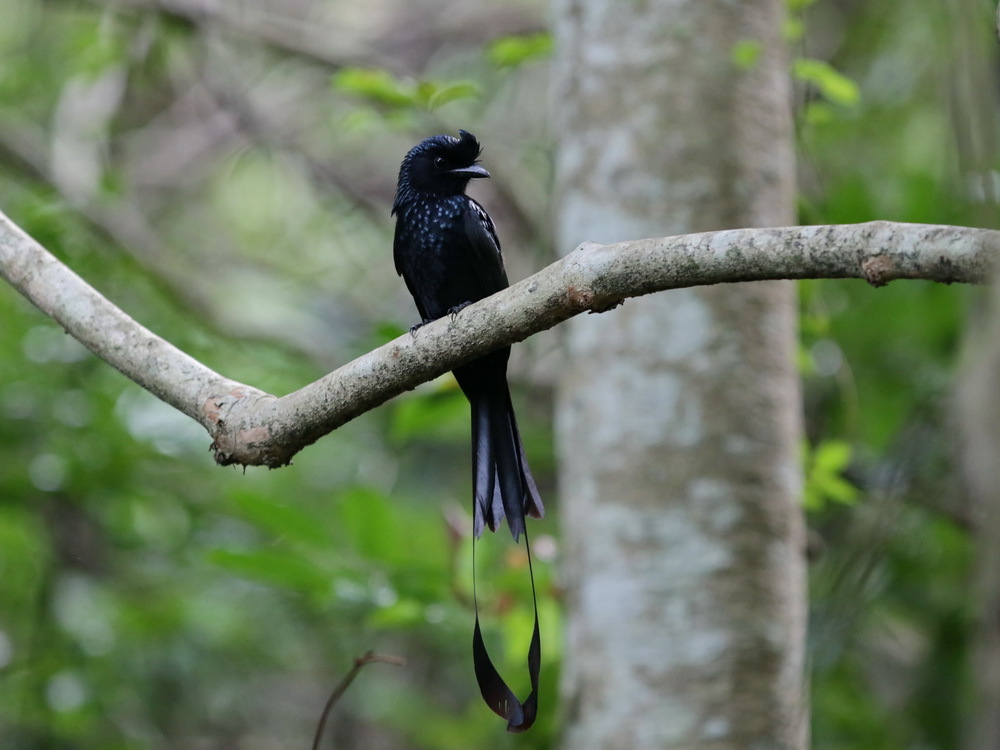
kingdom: Animalia
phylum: Chordata
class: Aves
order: Passeriformes
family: Dicruridae
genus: Dicrurus
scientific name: Dicrurus paradiseus
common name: Greater racket-tailed drongo
